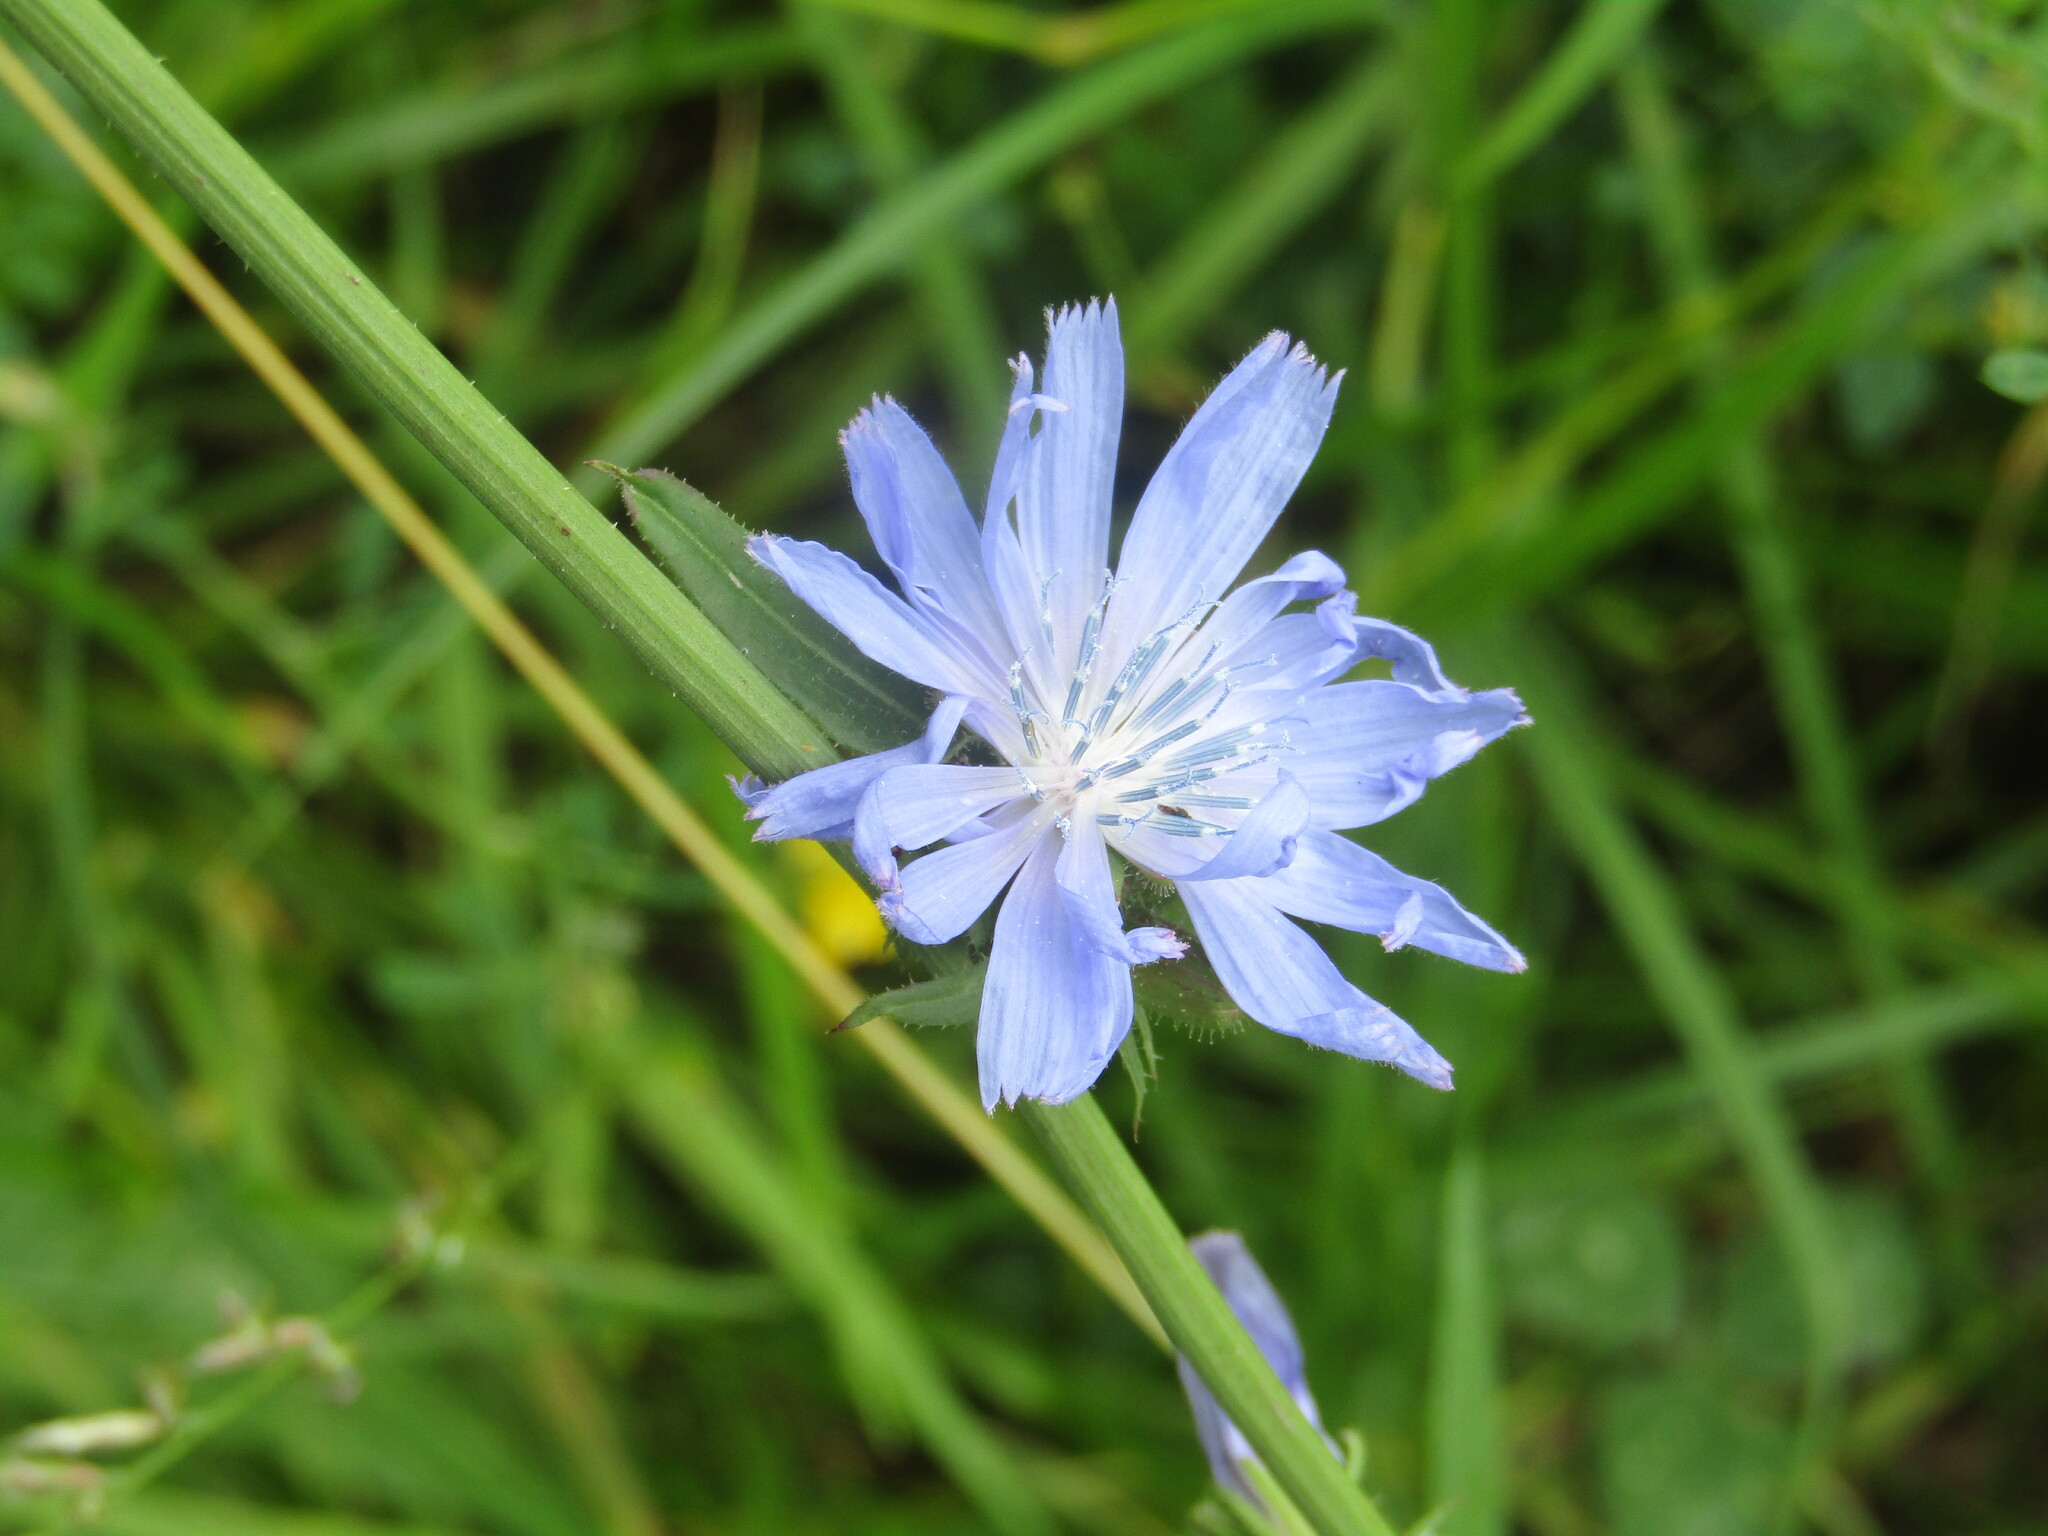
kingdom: Plantae
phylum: Tracheophyta
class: Magnoliopsida
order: Asterales
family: Asteraceae
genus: Cichorium
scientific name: Cichorium intybus
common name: Chicory
